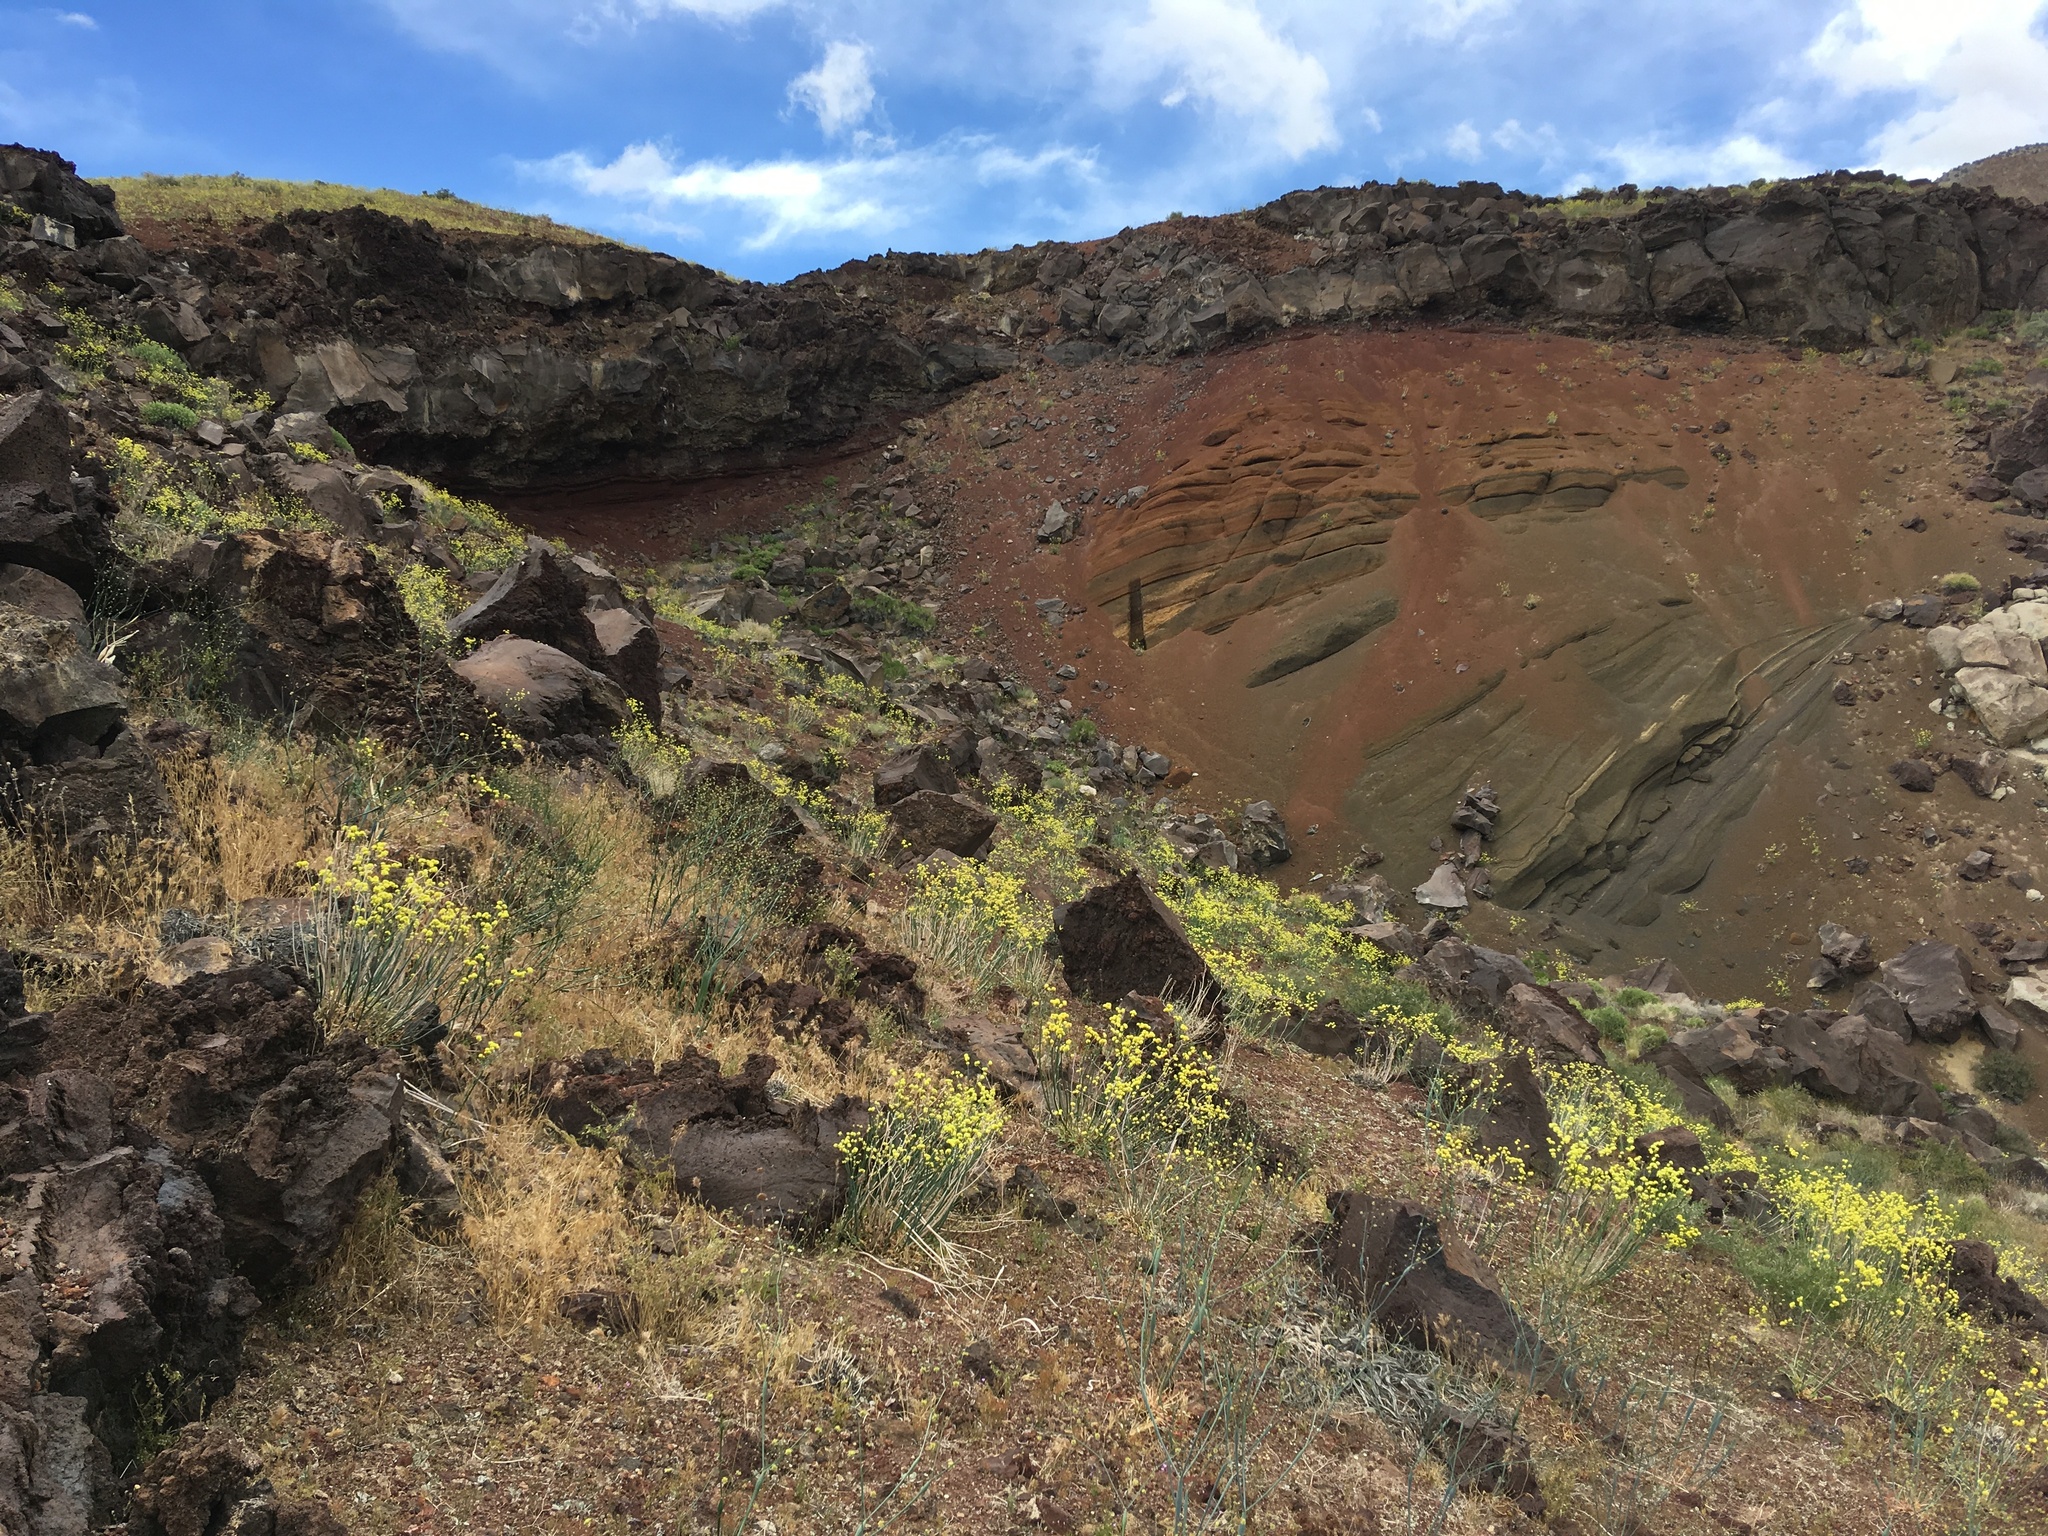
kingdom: Plantae
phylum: Tracheophyta
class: Magnoliopsida
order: Caryophyllales
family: Polygonaceae
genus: Eriogonum
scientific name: Eriogonum nudum
